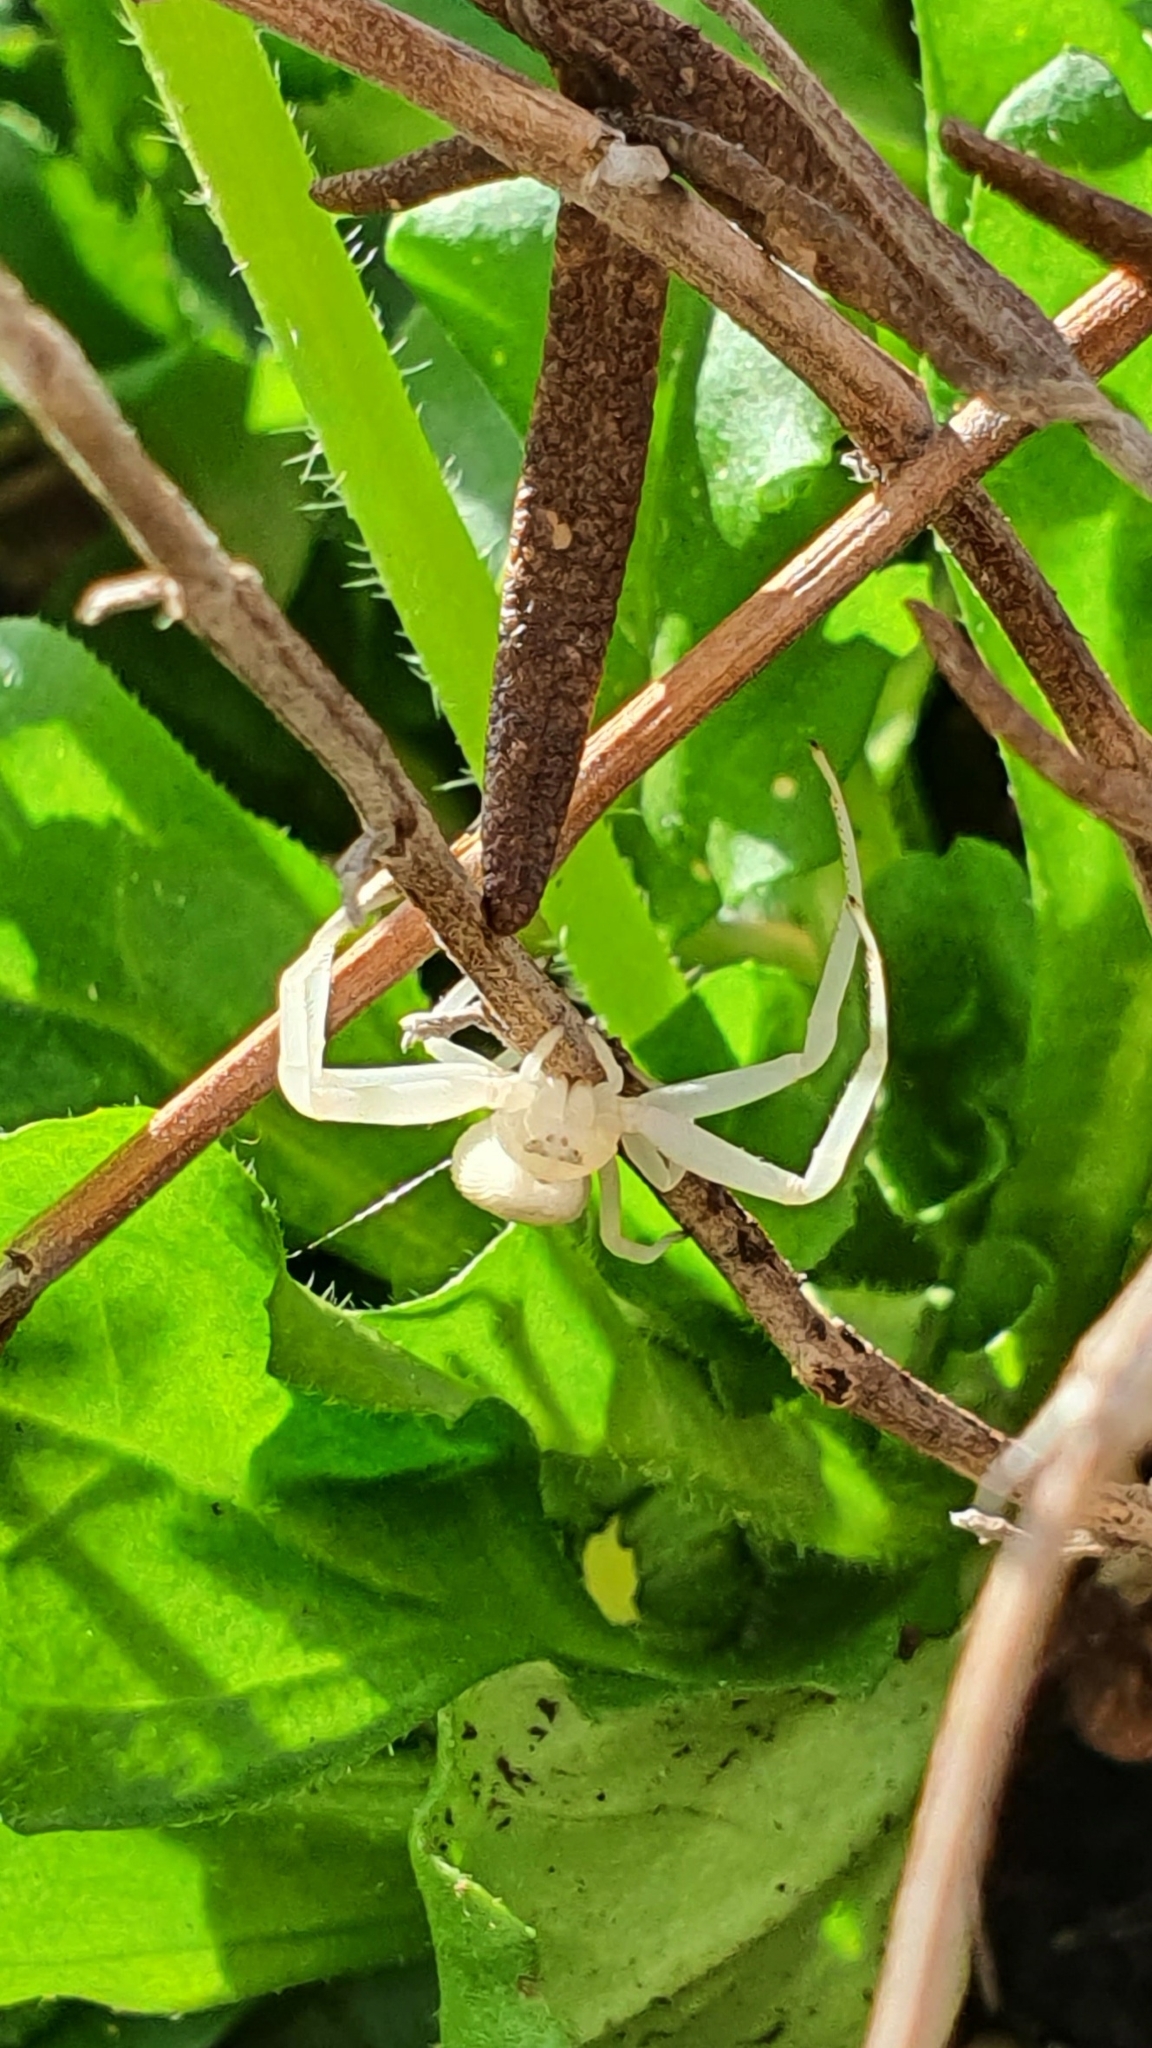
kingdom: Animalia
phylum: Arthropoda
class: Arachnida
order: Araneae
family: Thomisidae
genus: Misumena
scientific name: Misumena vatia
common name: Goldenrod crab spider
